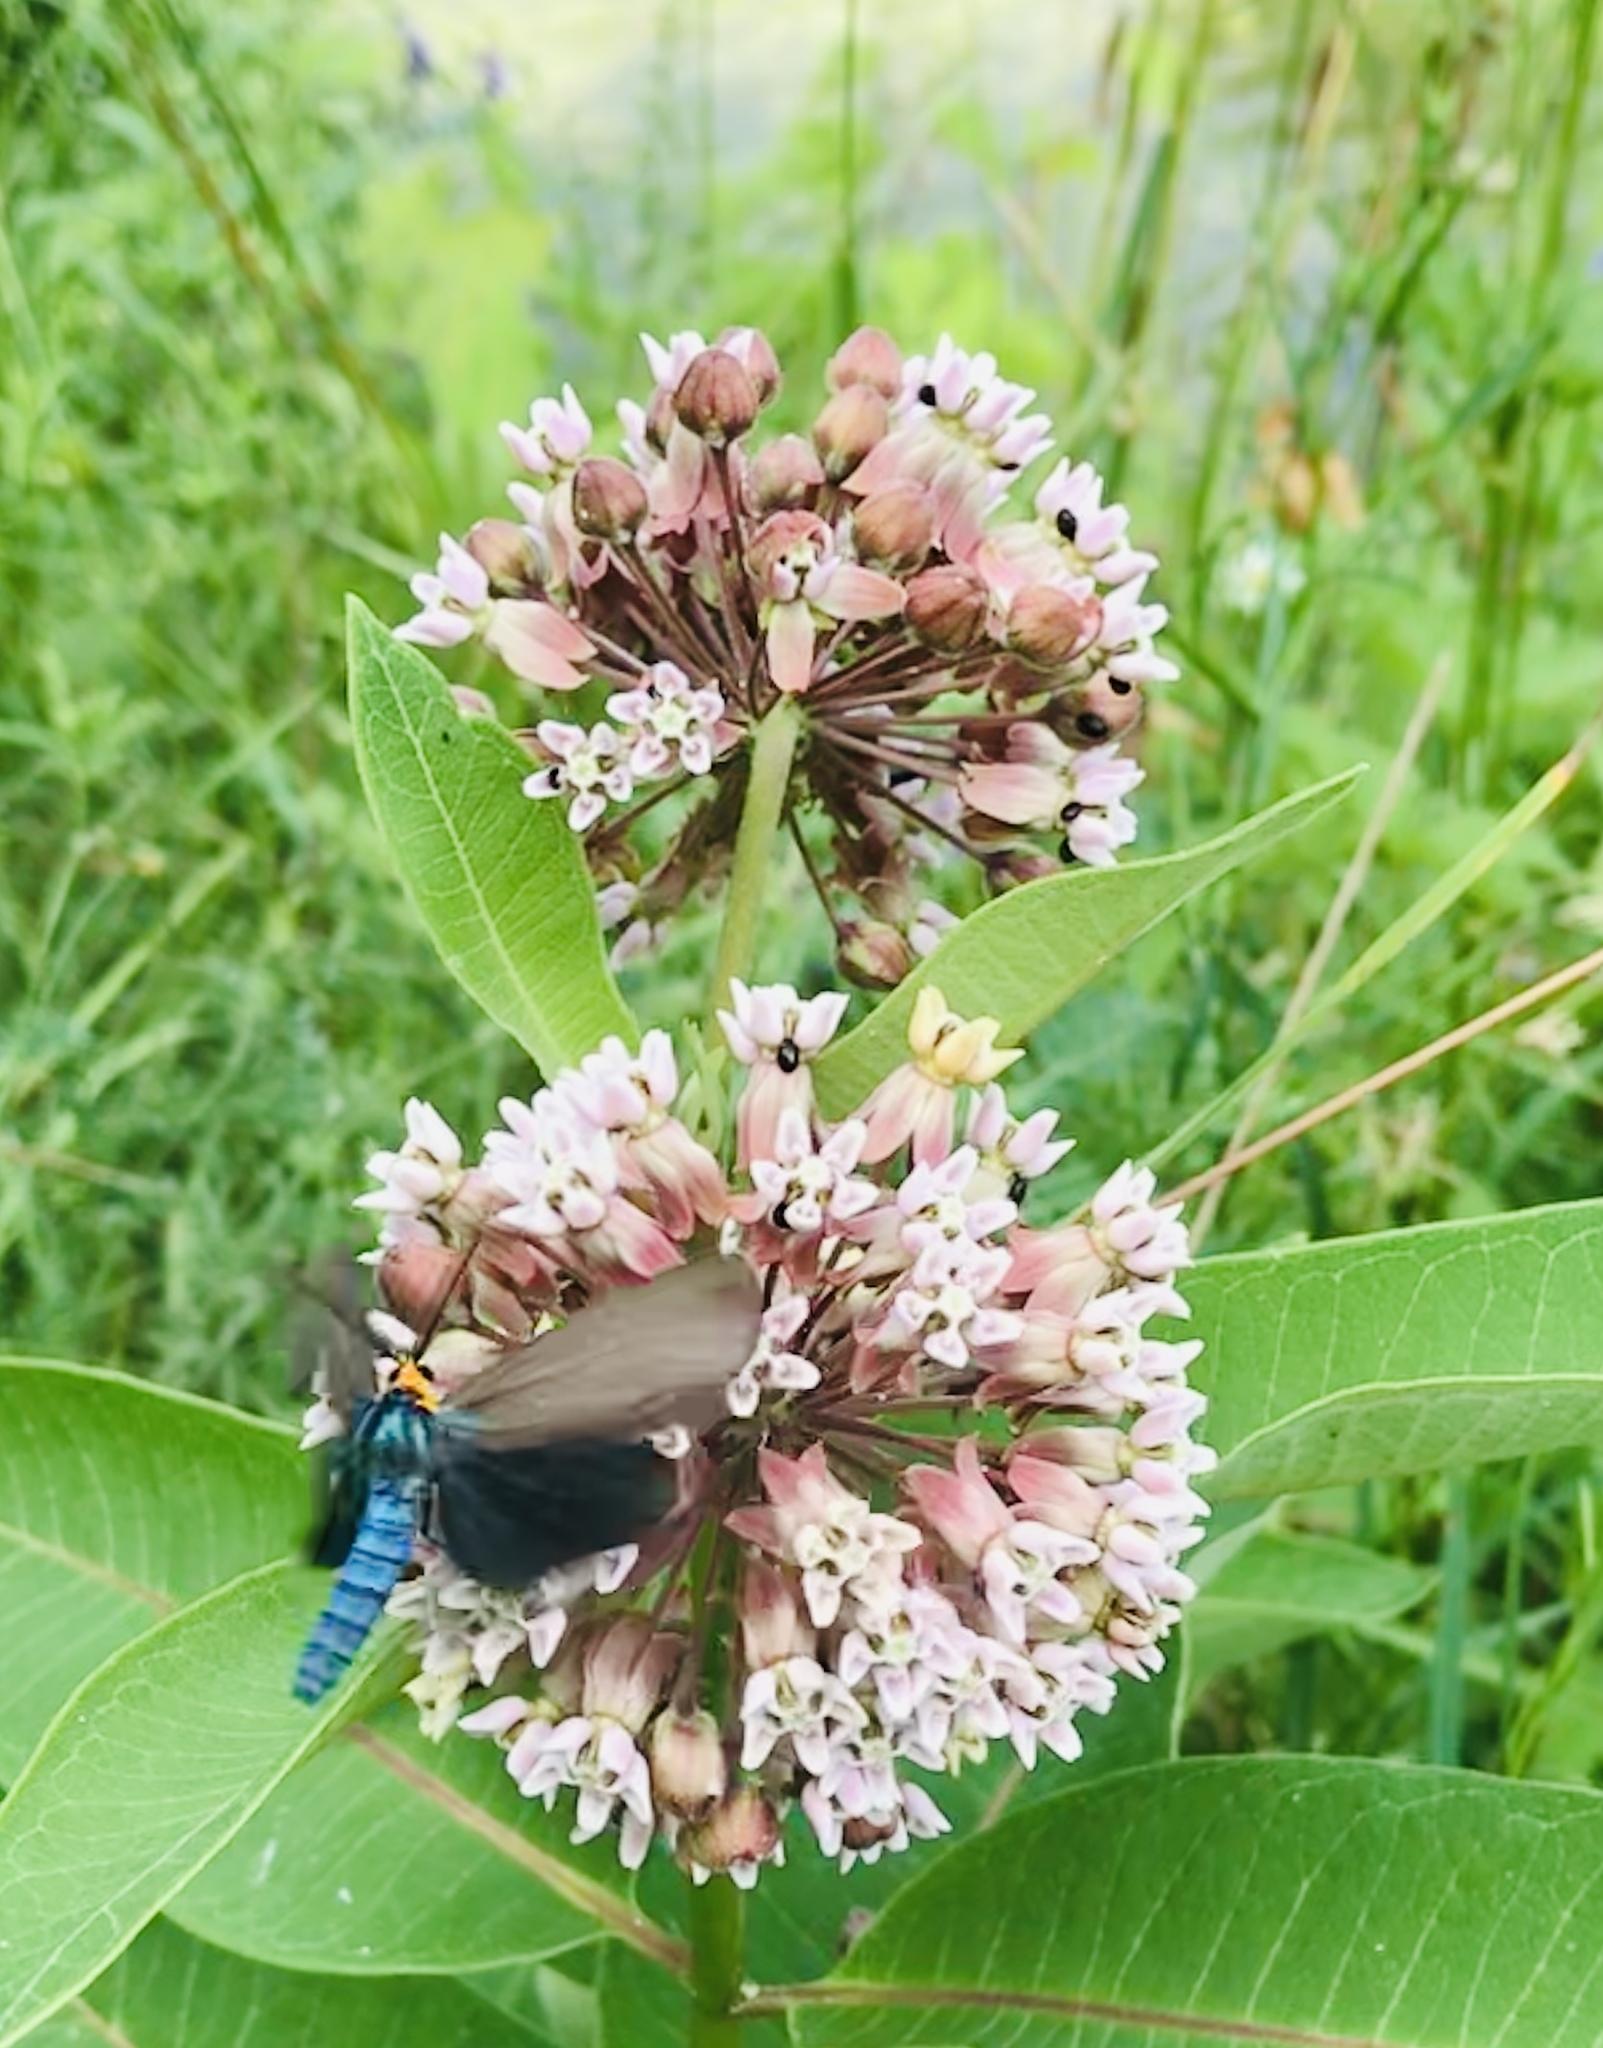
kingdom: Animalia
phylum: Arthropoda
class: Insecta
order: Lepidoptera
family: Erebidae
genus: Ctenucha
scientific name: Ctenucha virginica
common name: Virginia ctenucha moth
